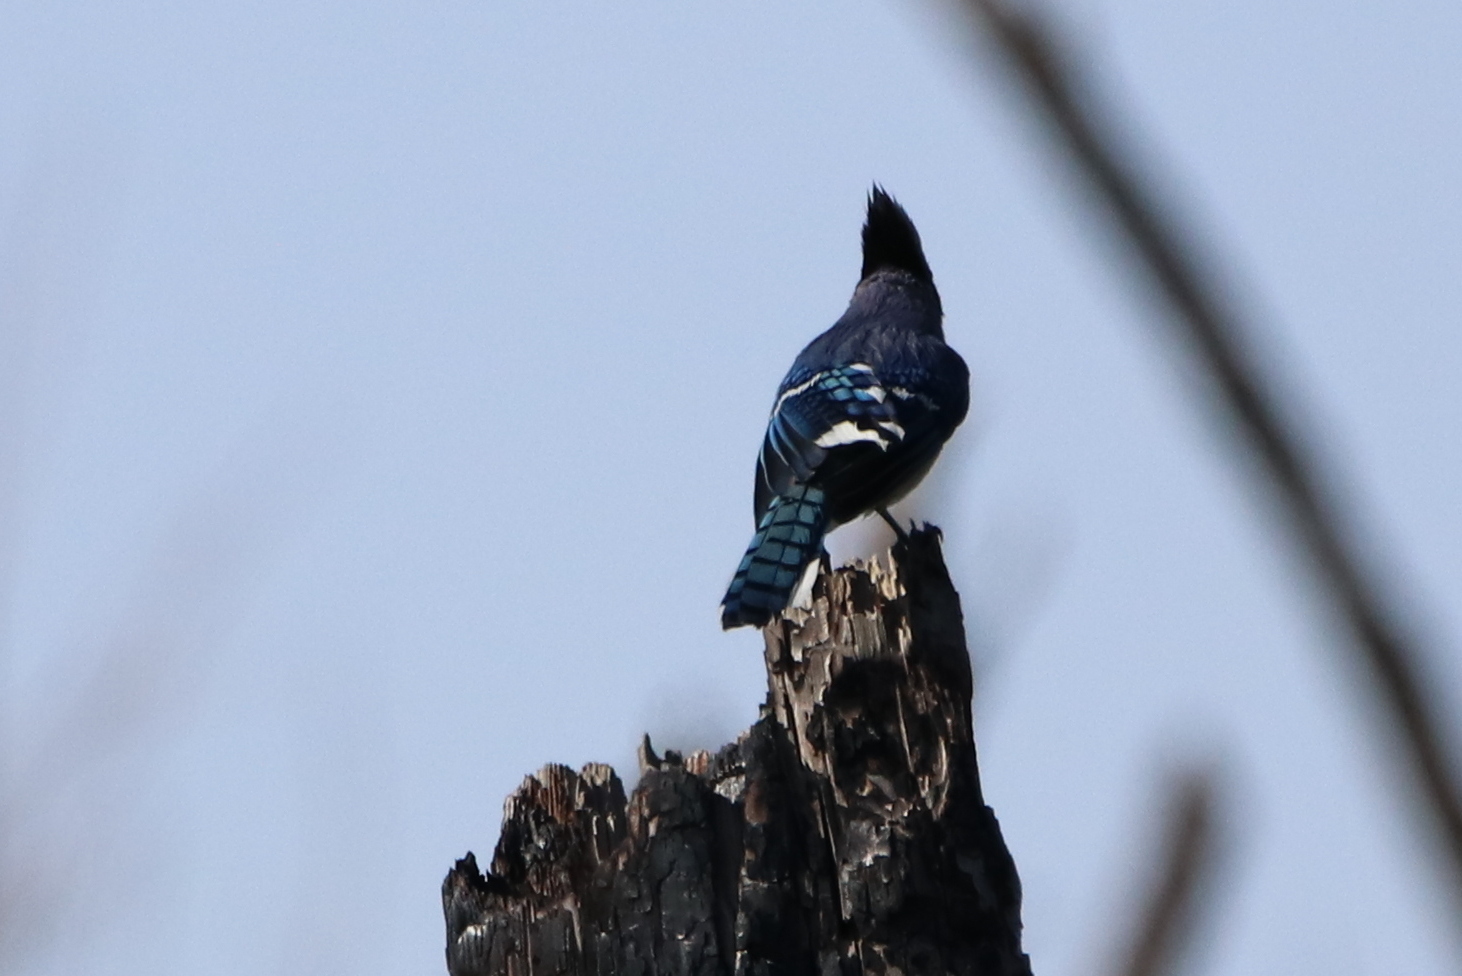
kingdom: Animalia
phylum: Chordata
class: Aves
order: Passeriformes
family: Corvidae
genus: Cyanocitta
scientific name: Cyanocitta cristata
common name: Blue jay
